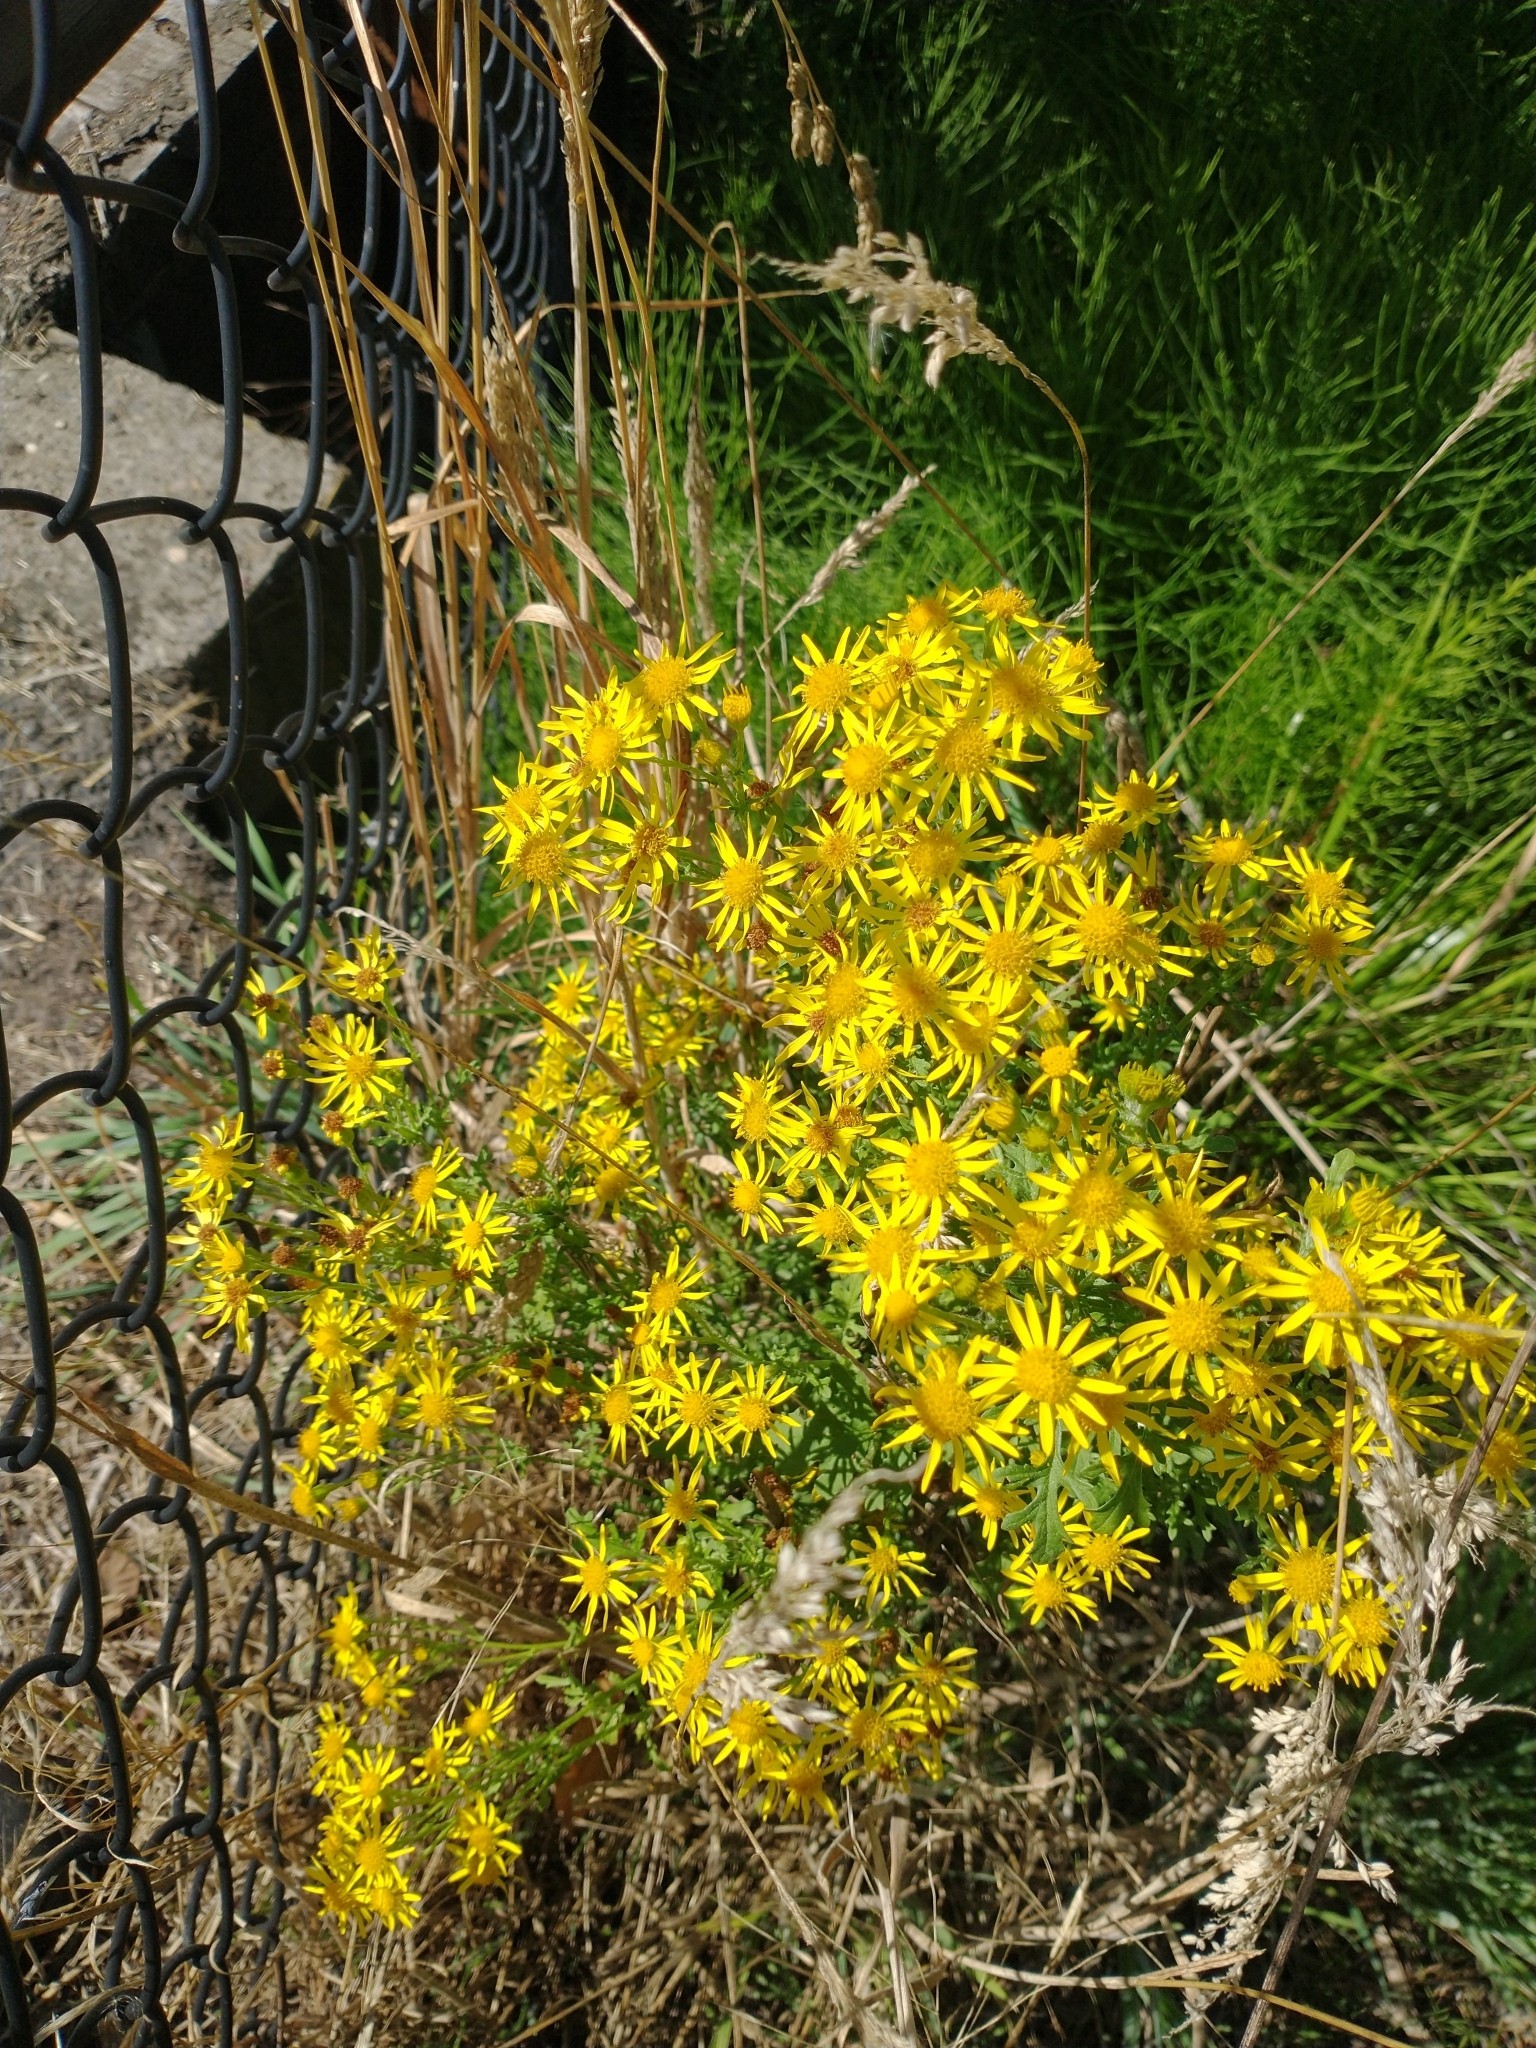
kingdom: Plantae
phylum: Tracheophyta
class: Magnoliopsida
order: Asterales
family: Asteraceae
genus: Jacobaea
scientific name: Jacobaea vulgaris
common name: Stinking willie
